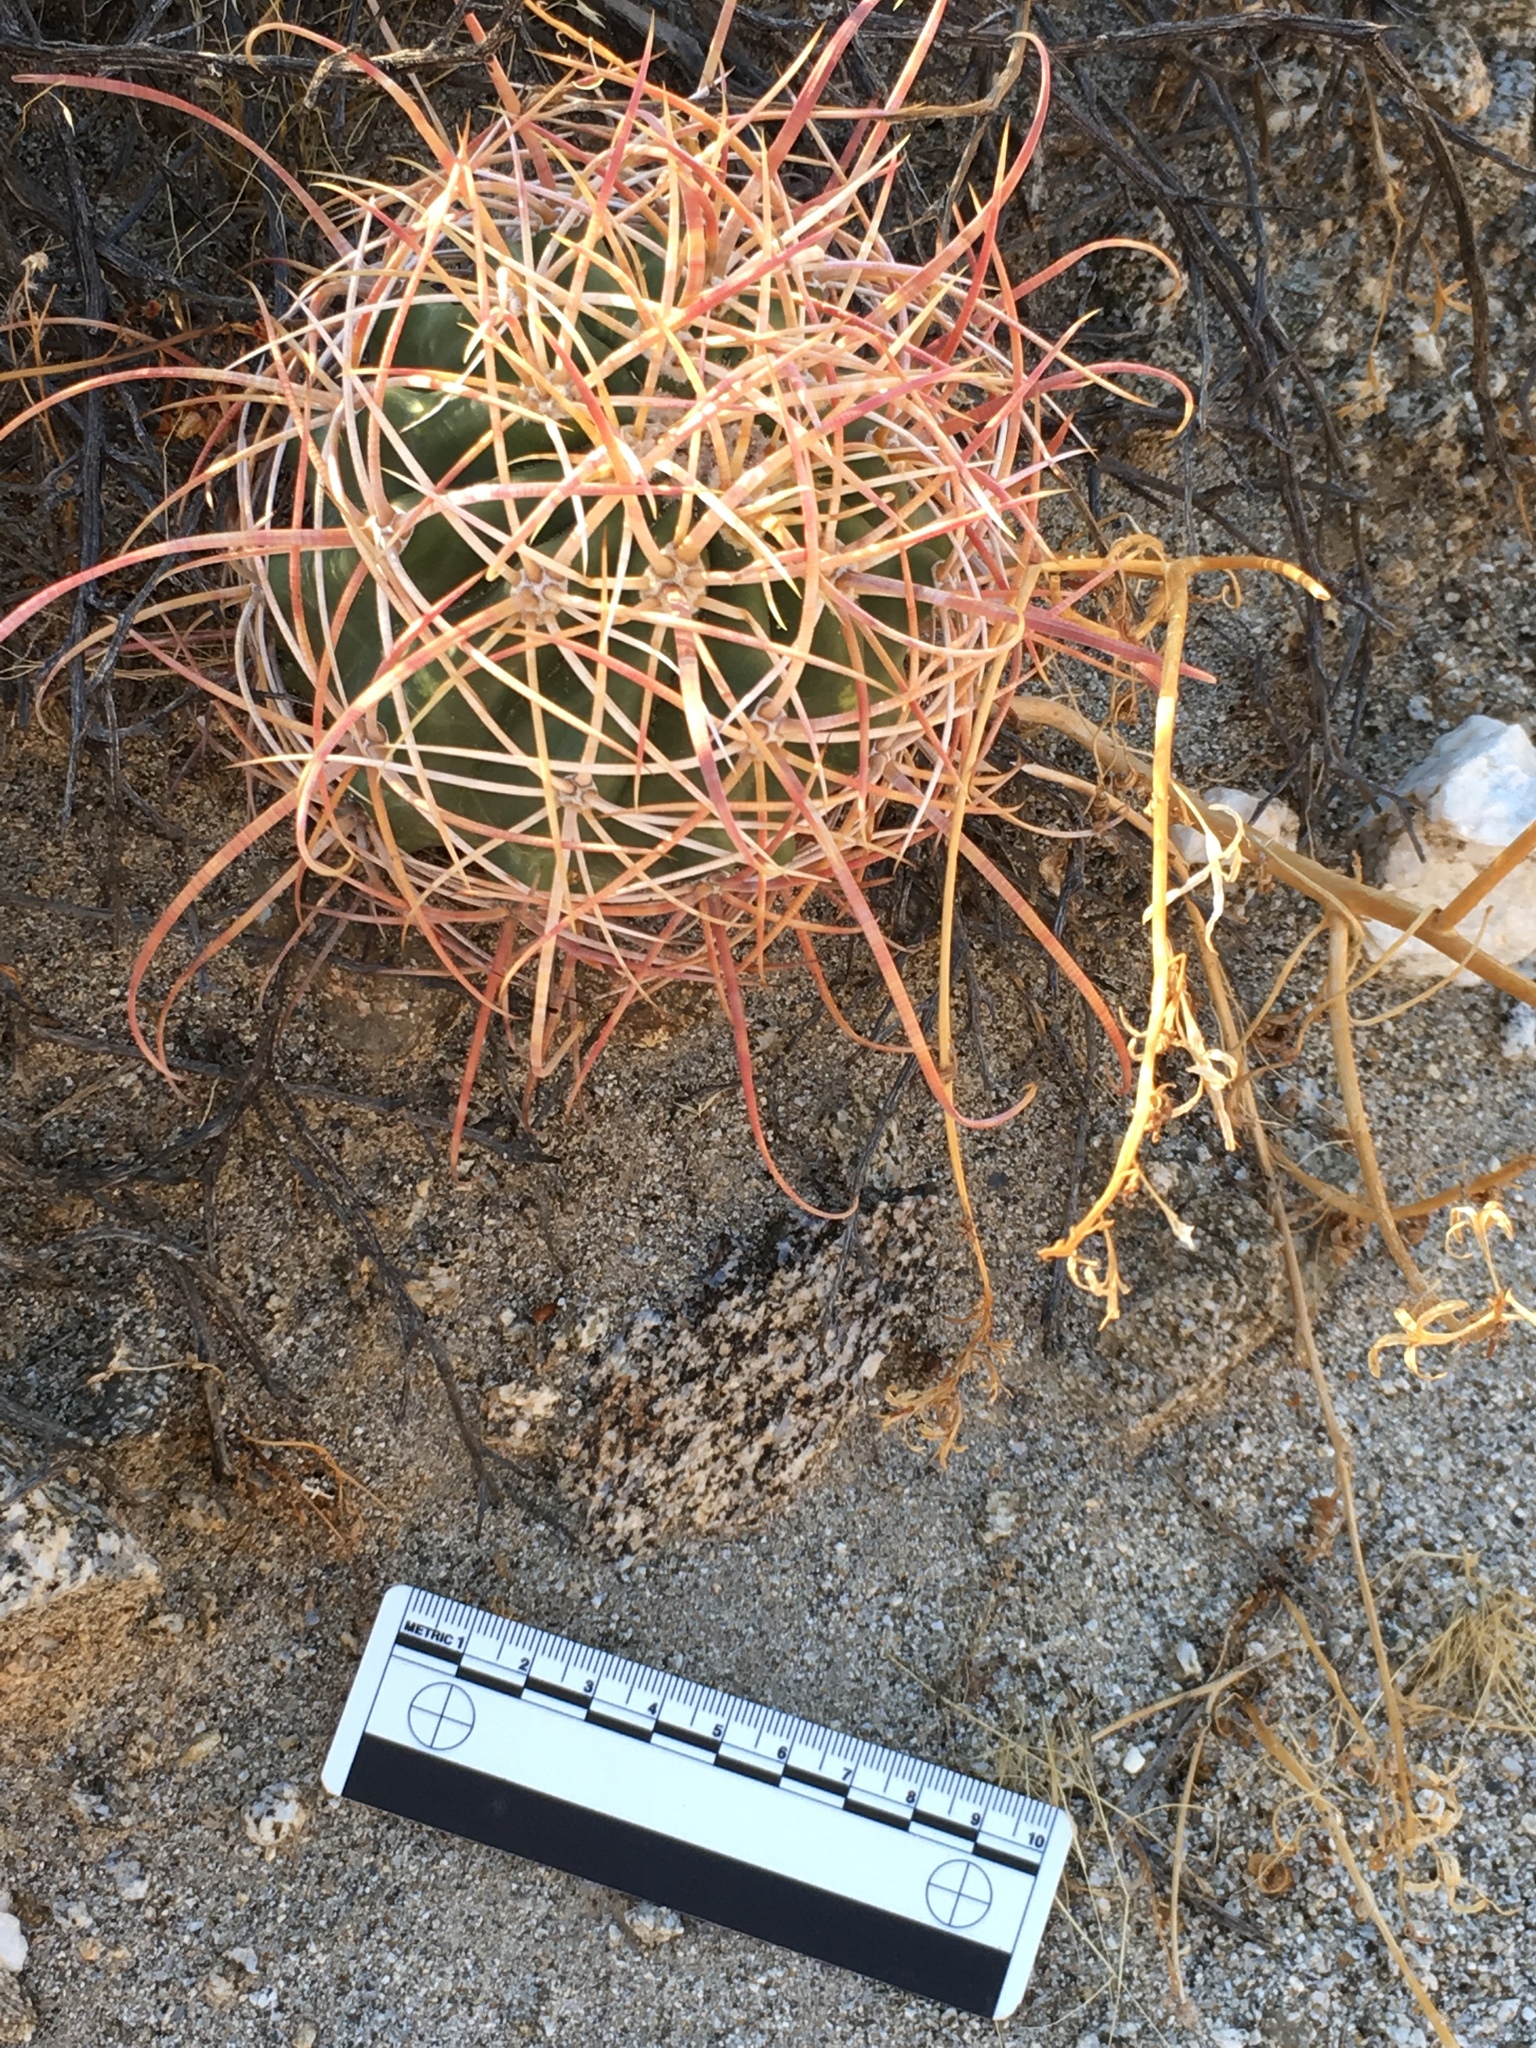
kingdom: Plantae
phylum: Tracheophyta
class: Magnoliopsida
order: Caryophyllales
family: Cactaceae
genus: Ferocactus
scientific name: Ferocactus cylindraceus
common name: California barrel cactus
